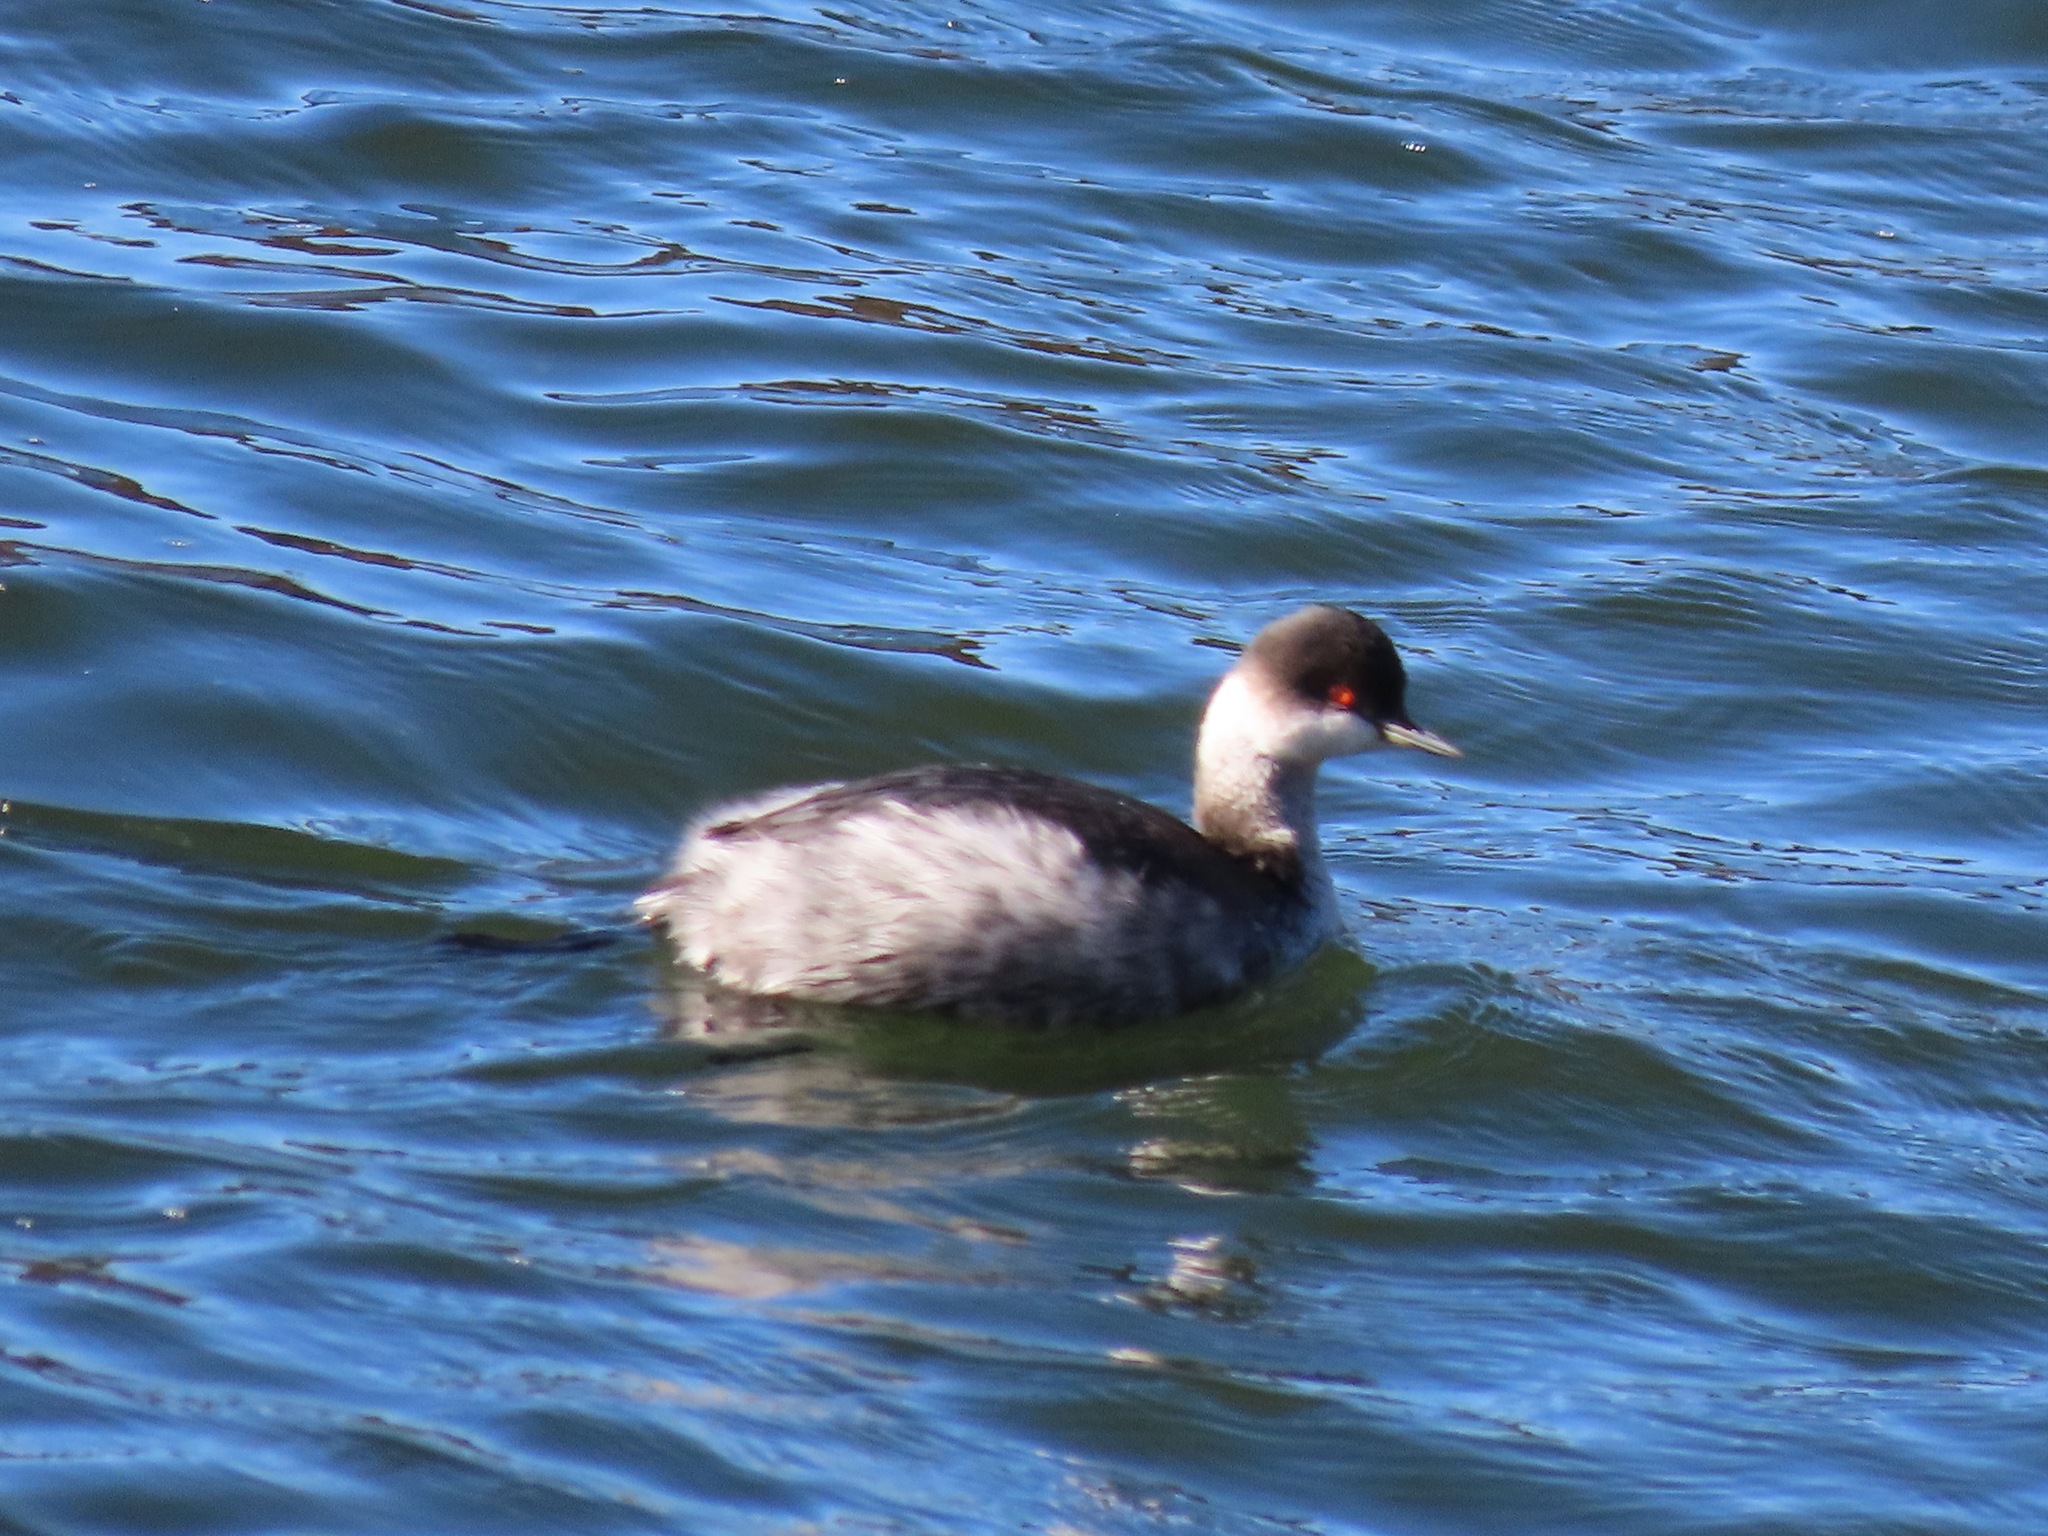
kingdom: Animalia
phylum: Chordata
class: Aves
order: Podicipediformes
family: Podicipedidae
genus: Podiceps
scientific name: Podiceps nigricollis
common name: Black-necked grebe
